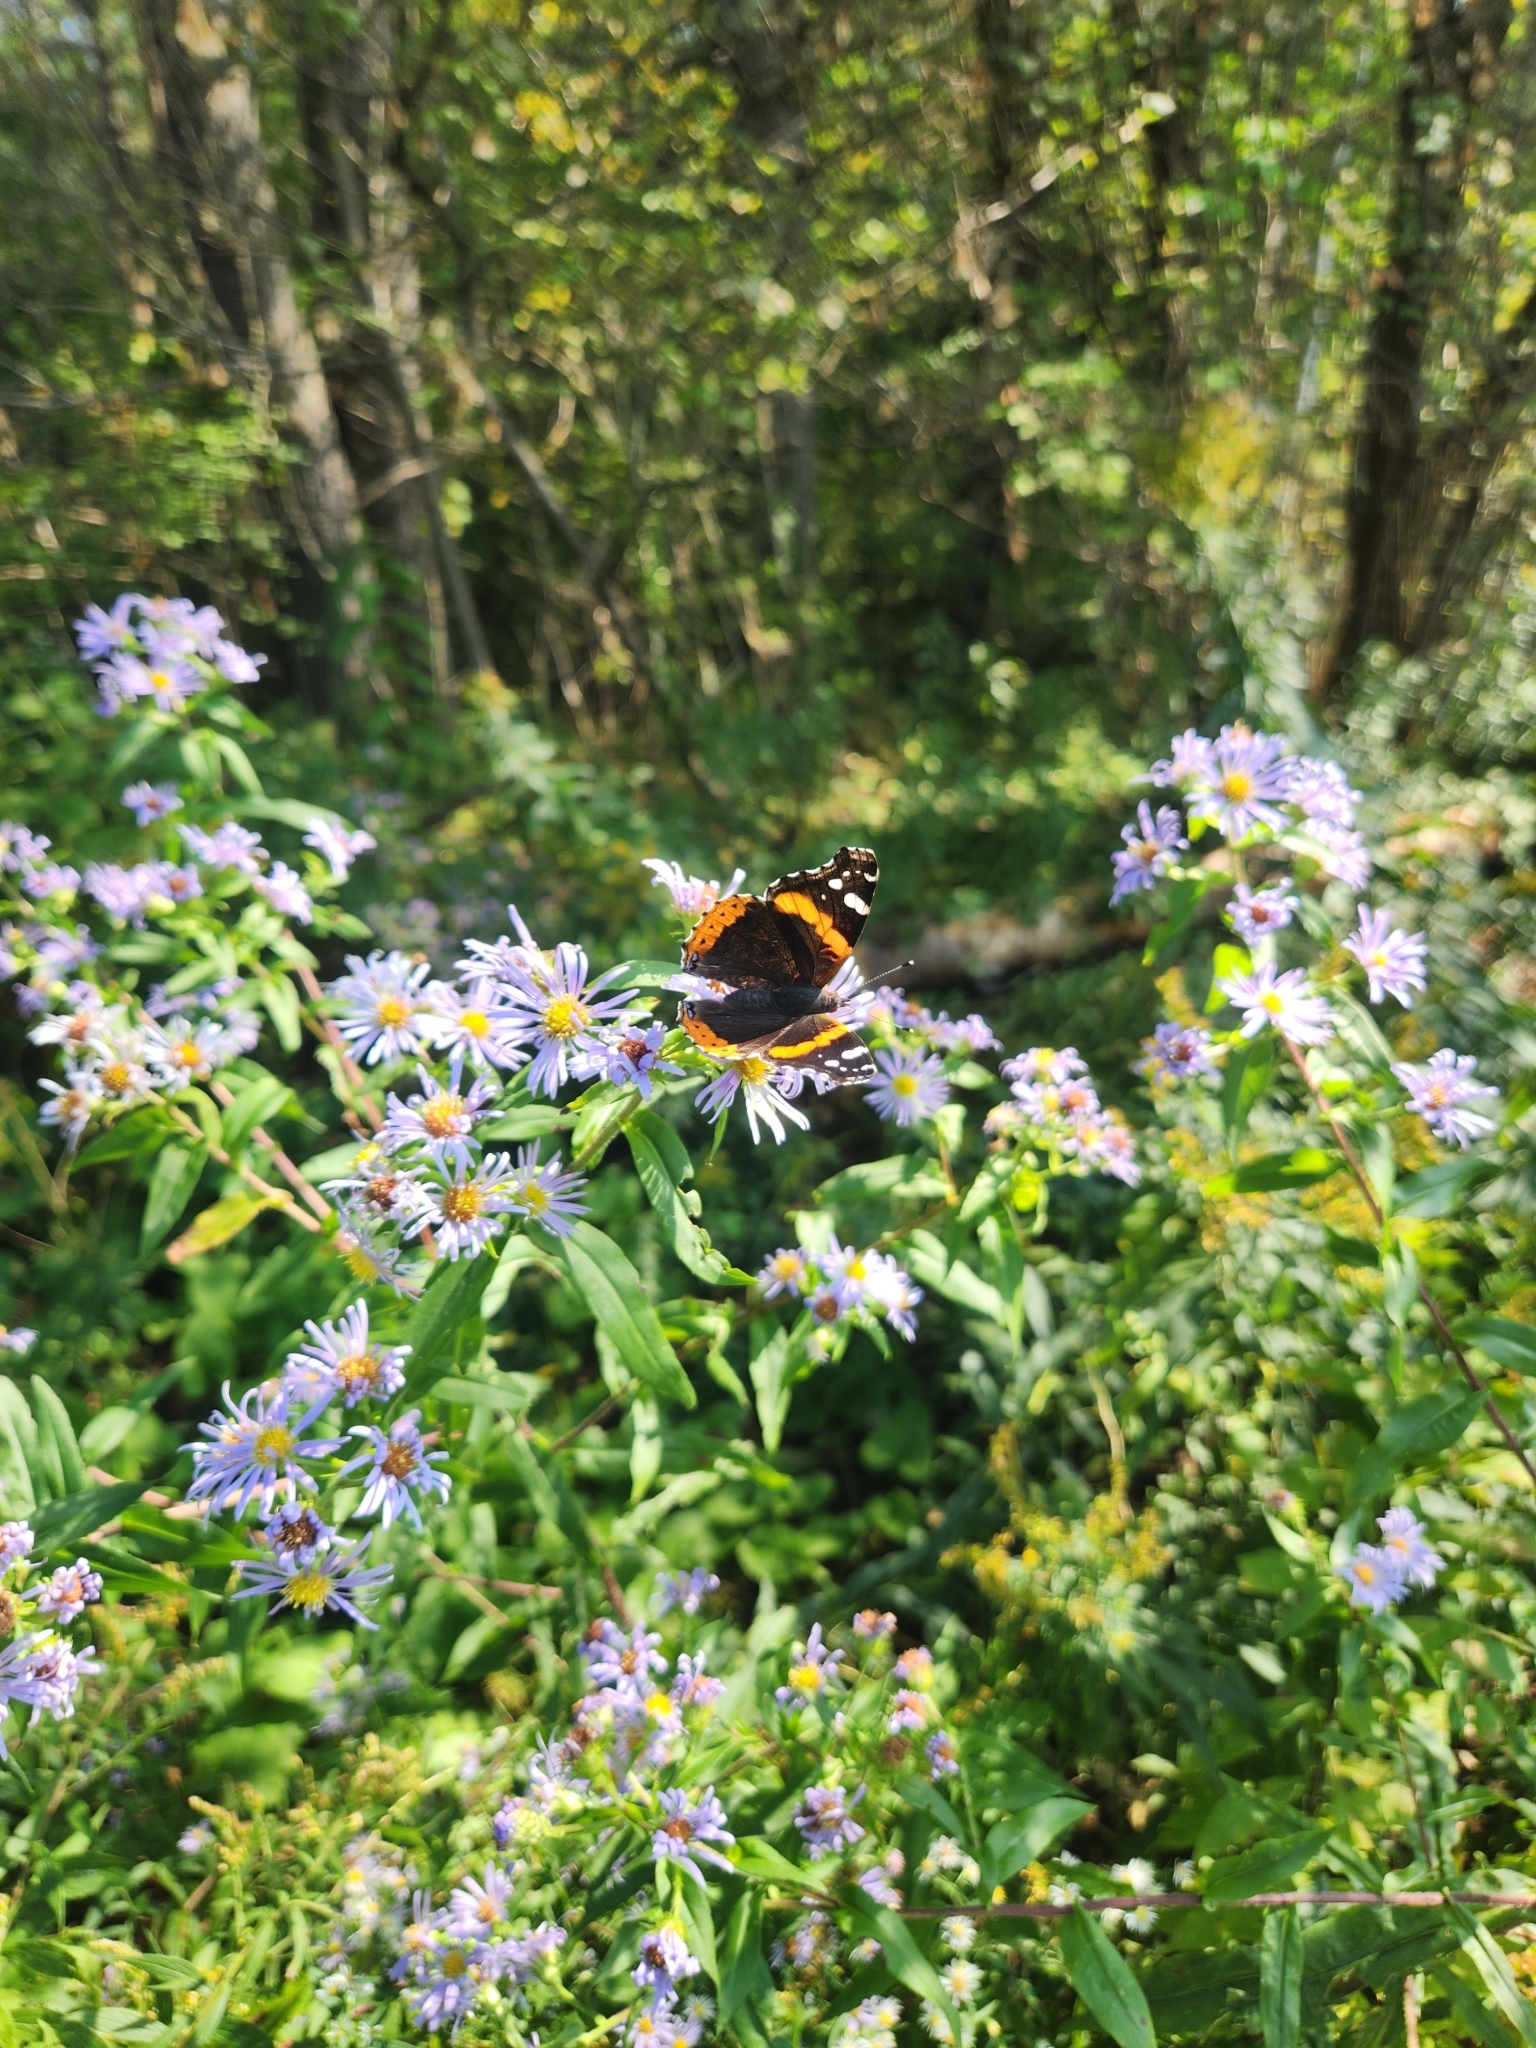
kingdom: Animalia
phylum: Arthropoda
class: Insecta
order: Lepidoptera
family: Nymphalidae
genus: Vanessa
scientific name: Vanessa atalanta
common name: Red admiral
